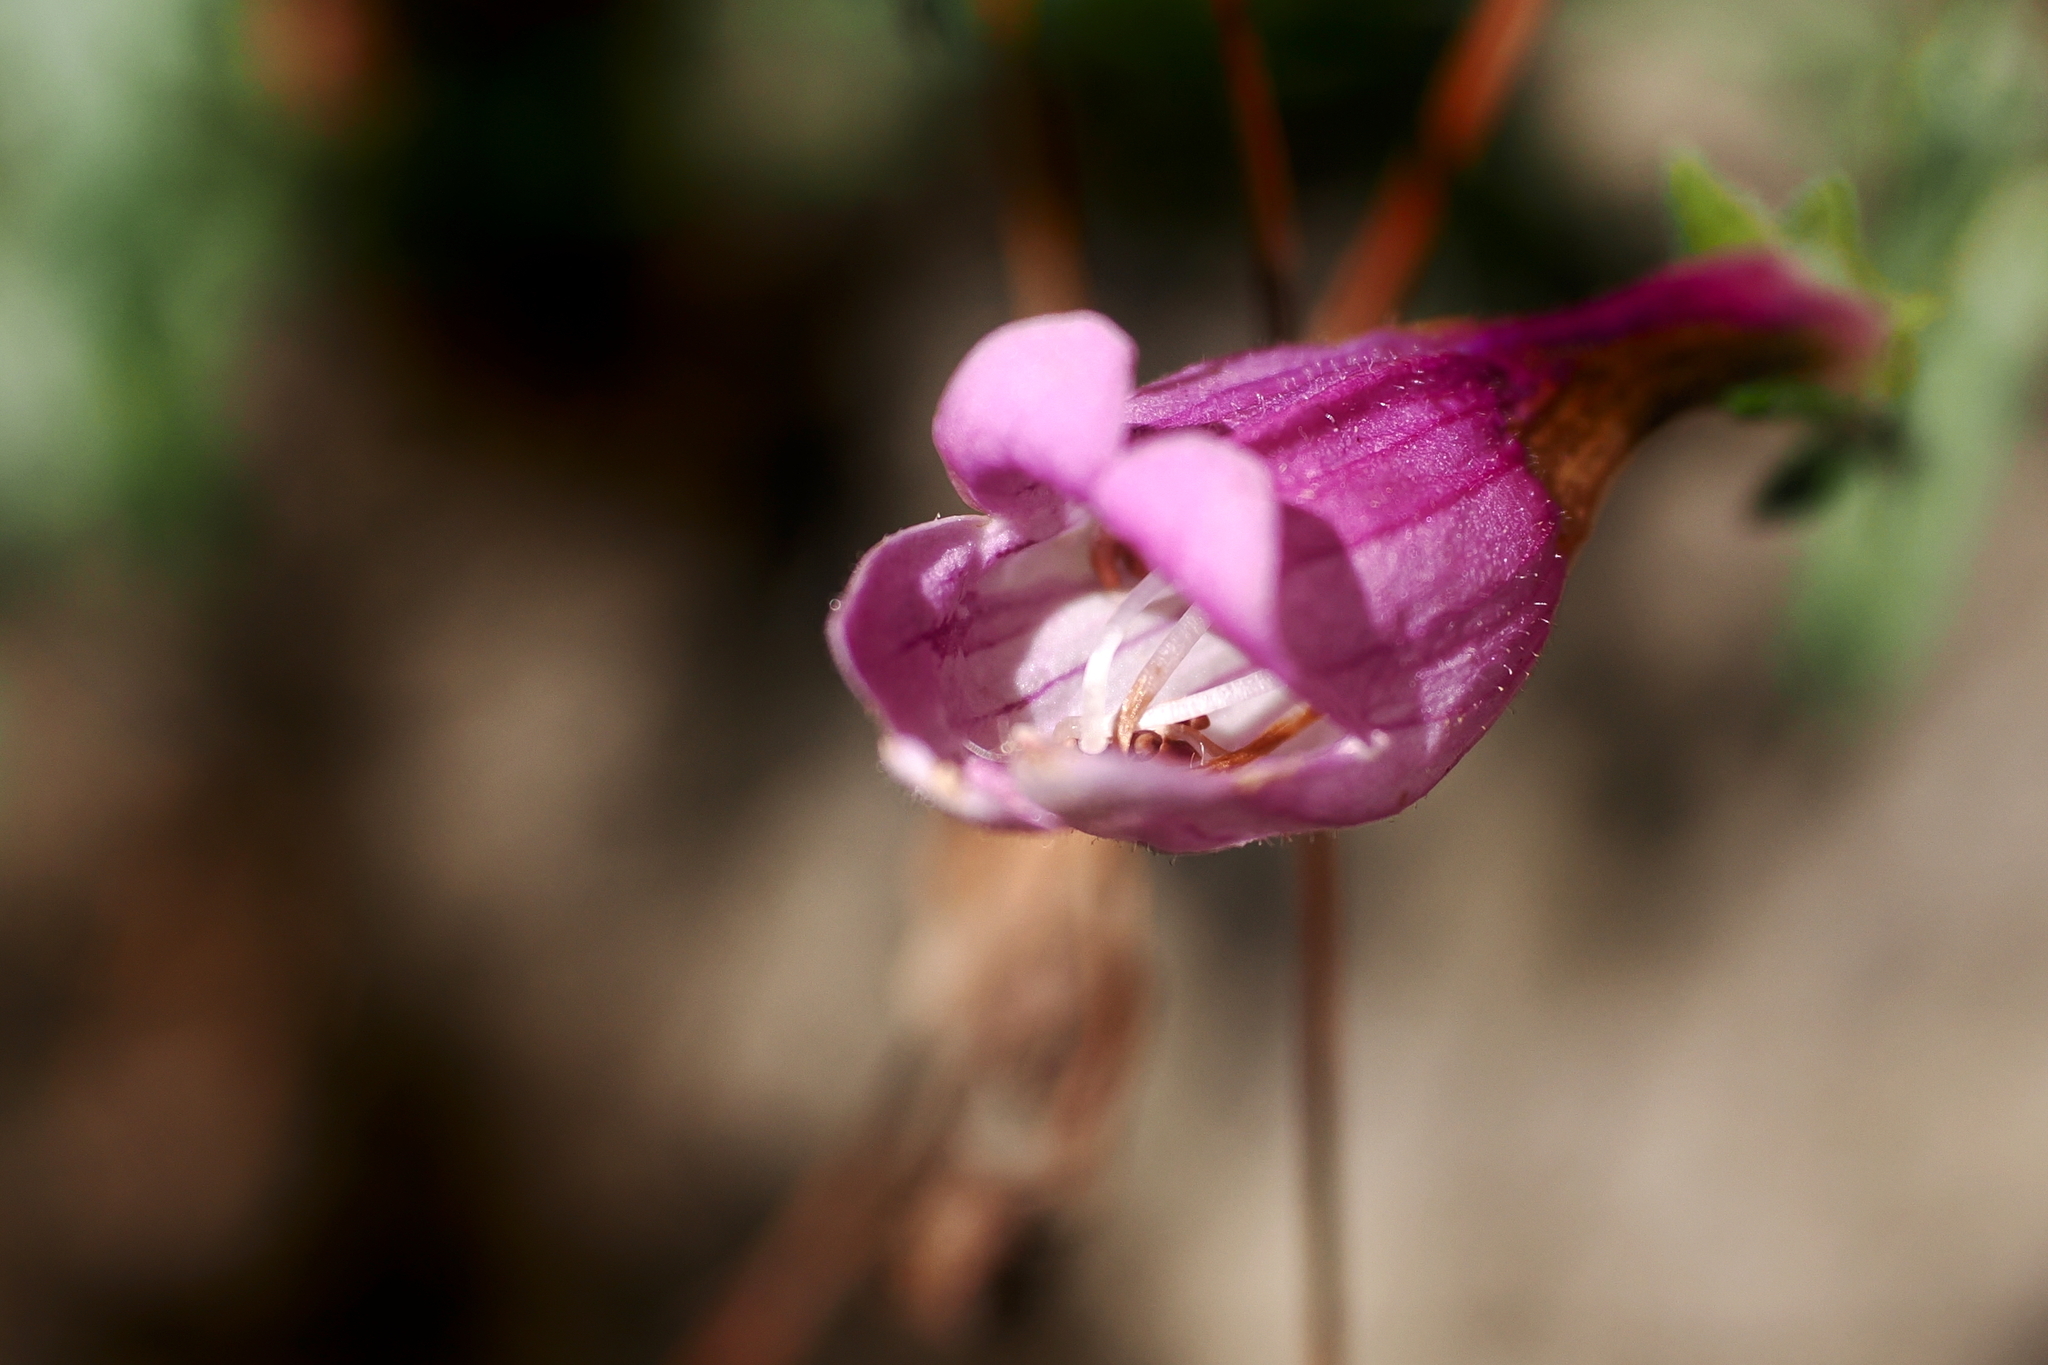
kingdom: Plantae
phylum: Tracheophyta
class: Magnoliopsida
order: Lamiales
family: Plantaginaceae
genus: Penstemon
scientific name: Penstemon richardsonii
